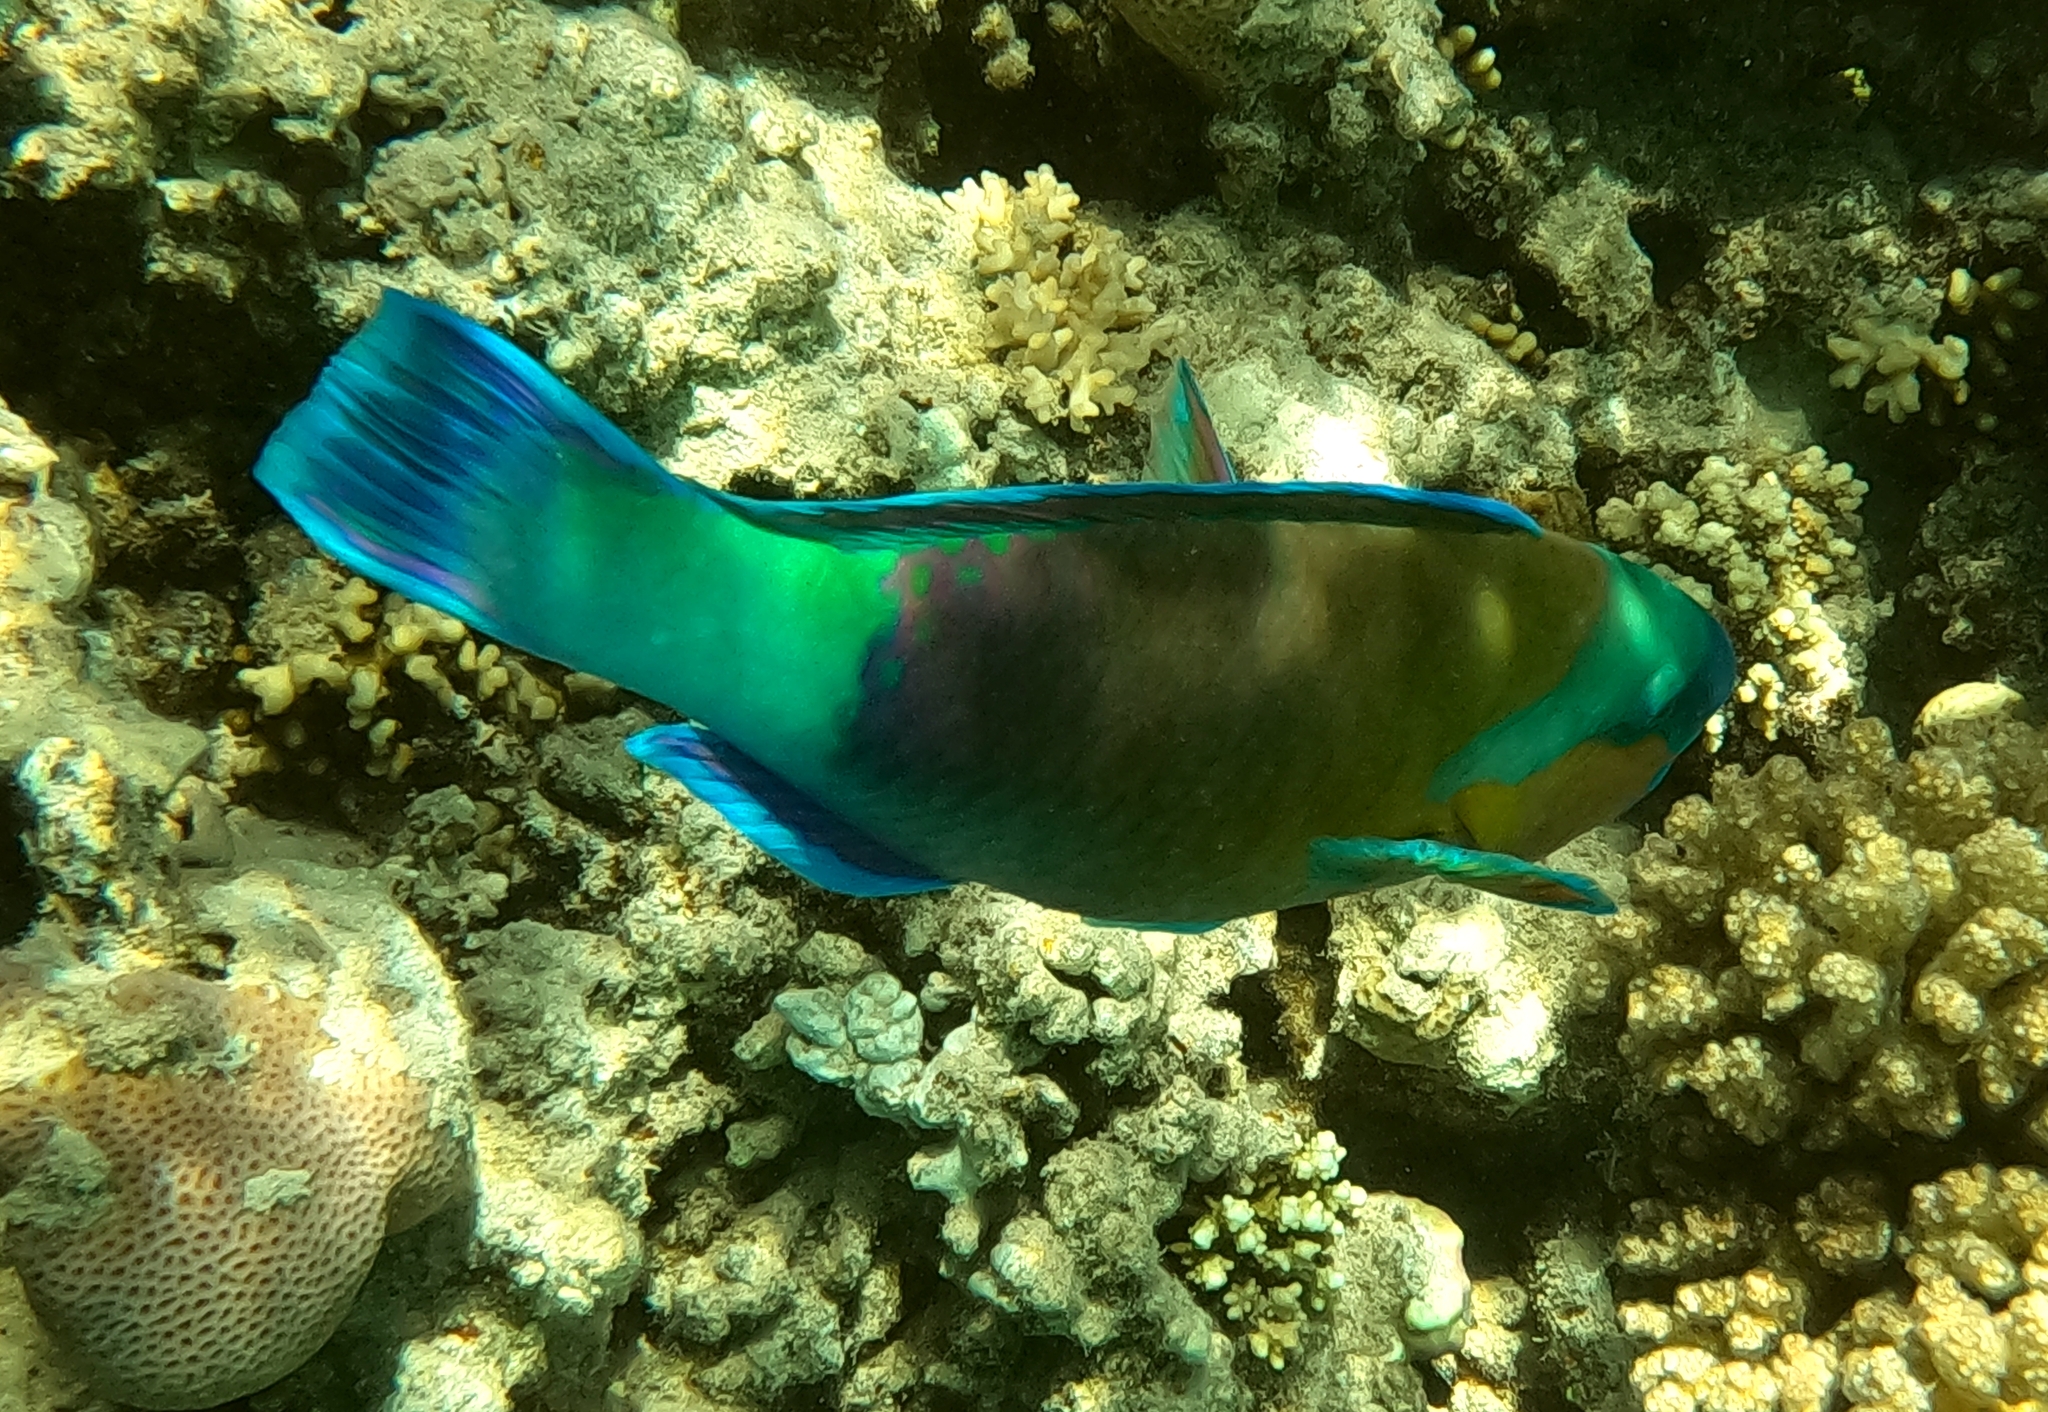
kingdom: Animalia
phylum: Chordata
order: Perciformes
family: Scaridae
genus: Chlorurus
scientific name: Chlorurus sordidus
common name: Bullethead parrotfish
